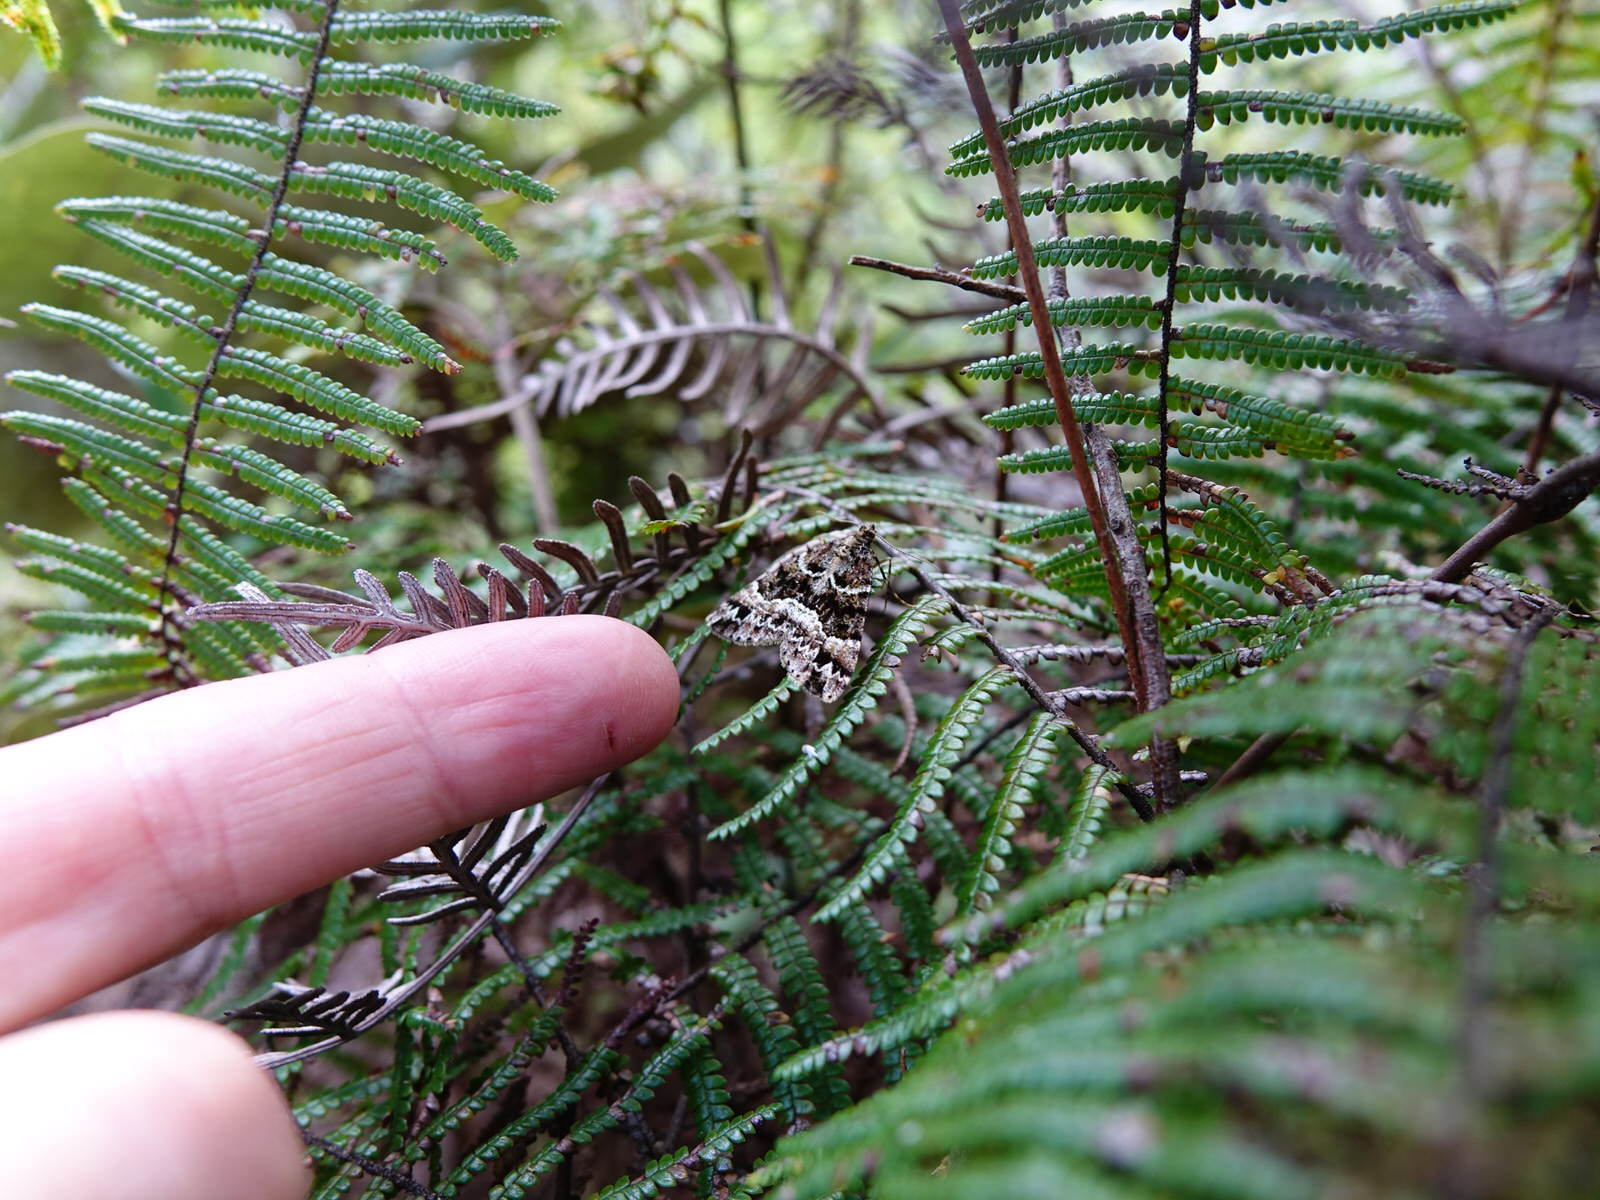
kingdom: Animalia
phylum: Arthropoda
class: Insecta
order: Lepidoptera
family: Geometridae
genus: Pseudocoremia
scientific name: Pseudocoremia productata
